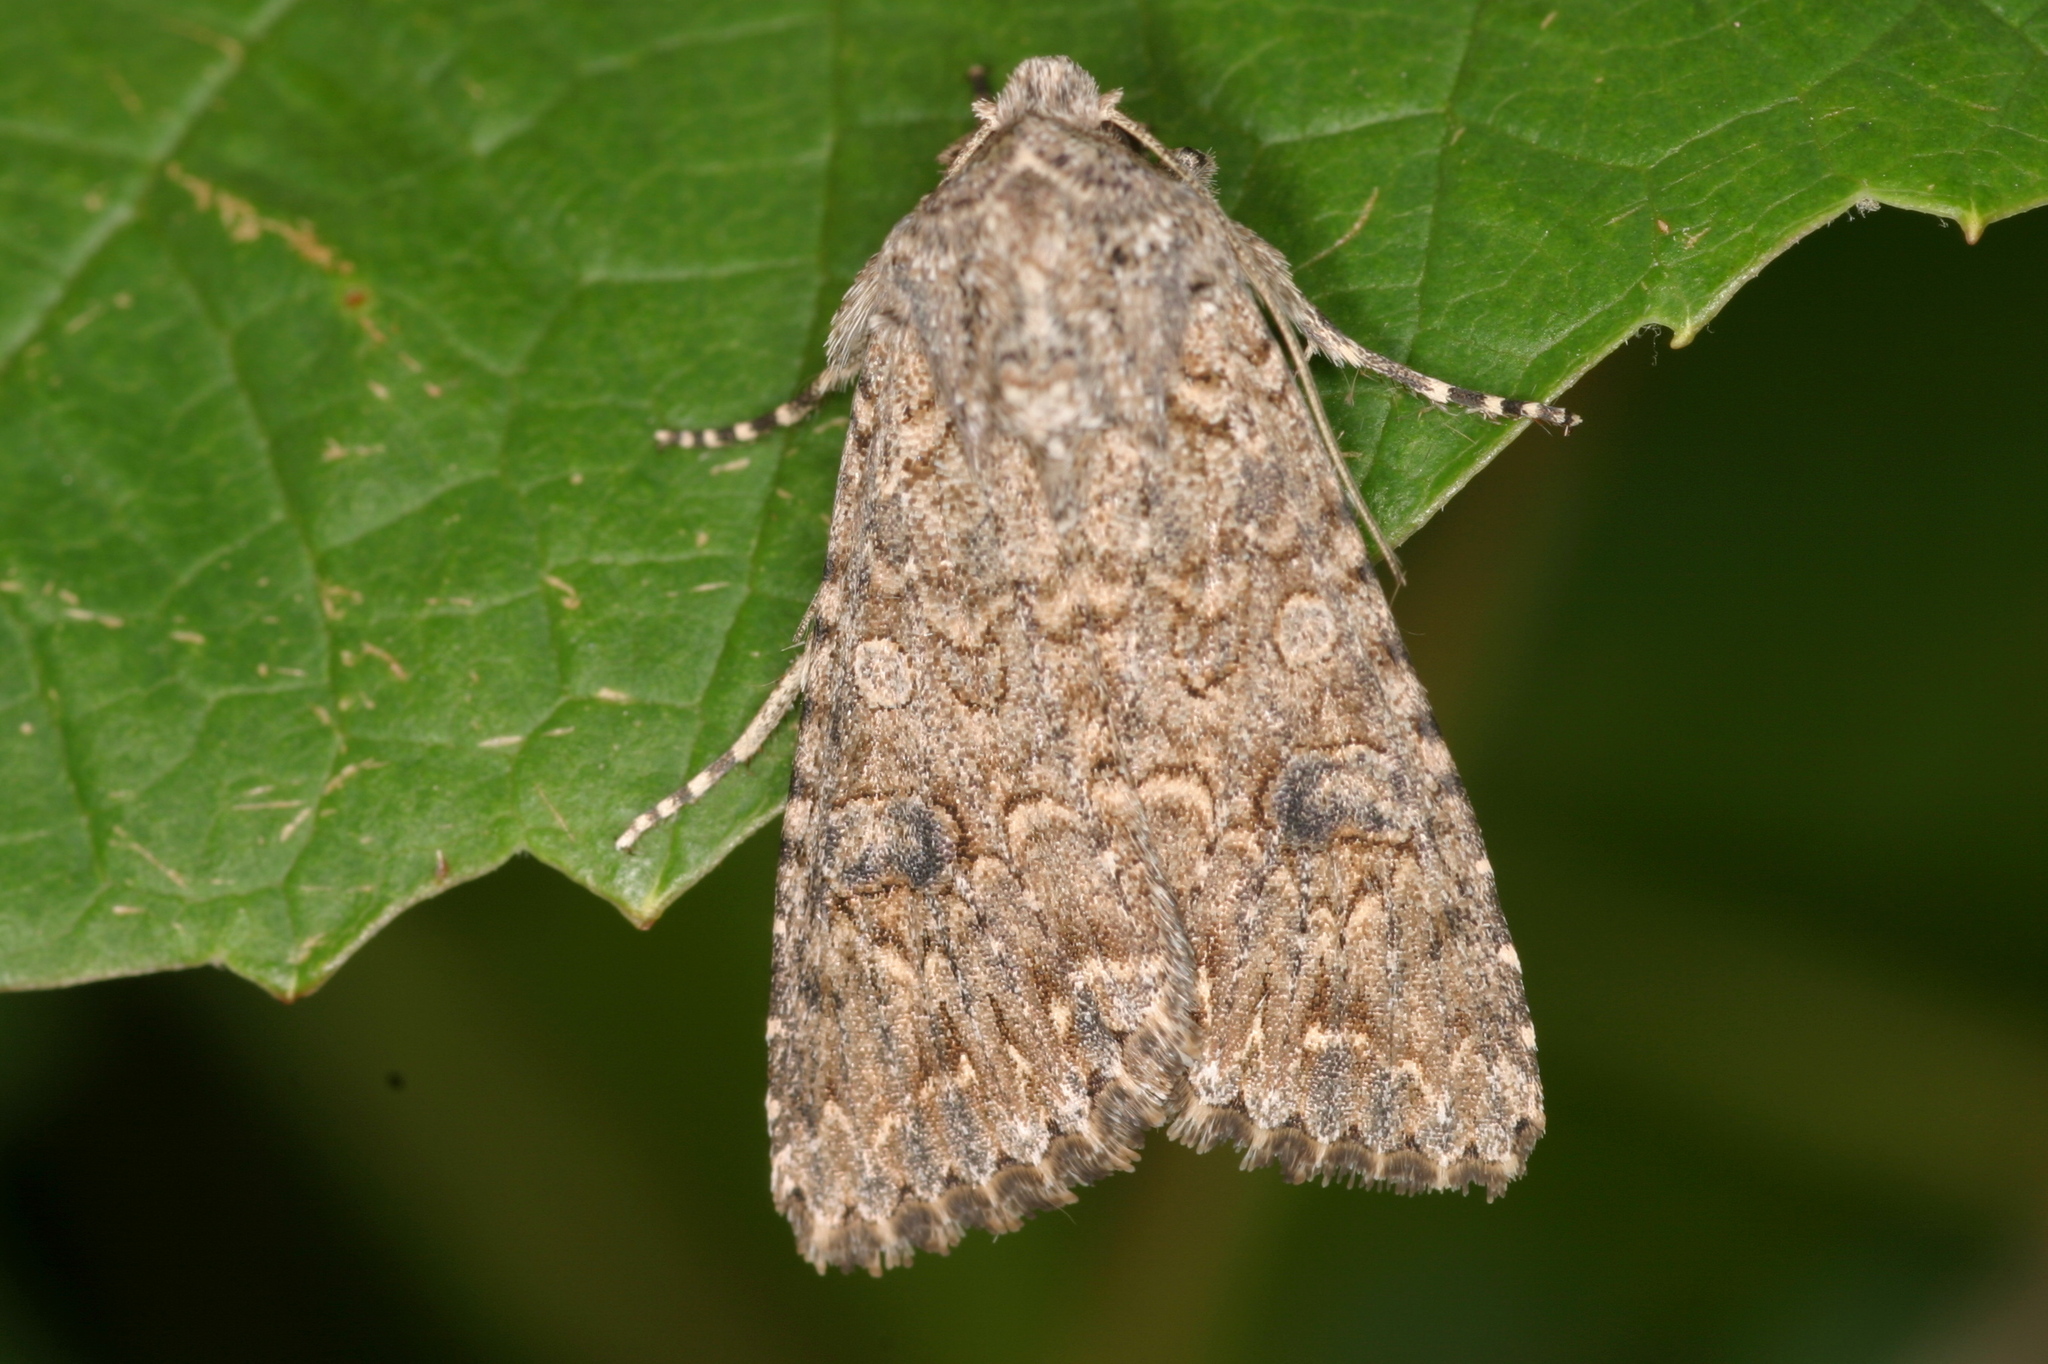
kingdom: Animalia
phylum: Arthropoda
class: Insecta
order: Lepidoptera
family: Noctuidae
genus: Anarta
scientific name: Anarta trifolii
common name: Clover cutworm moth
